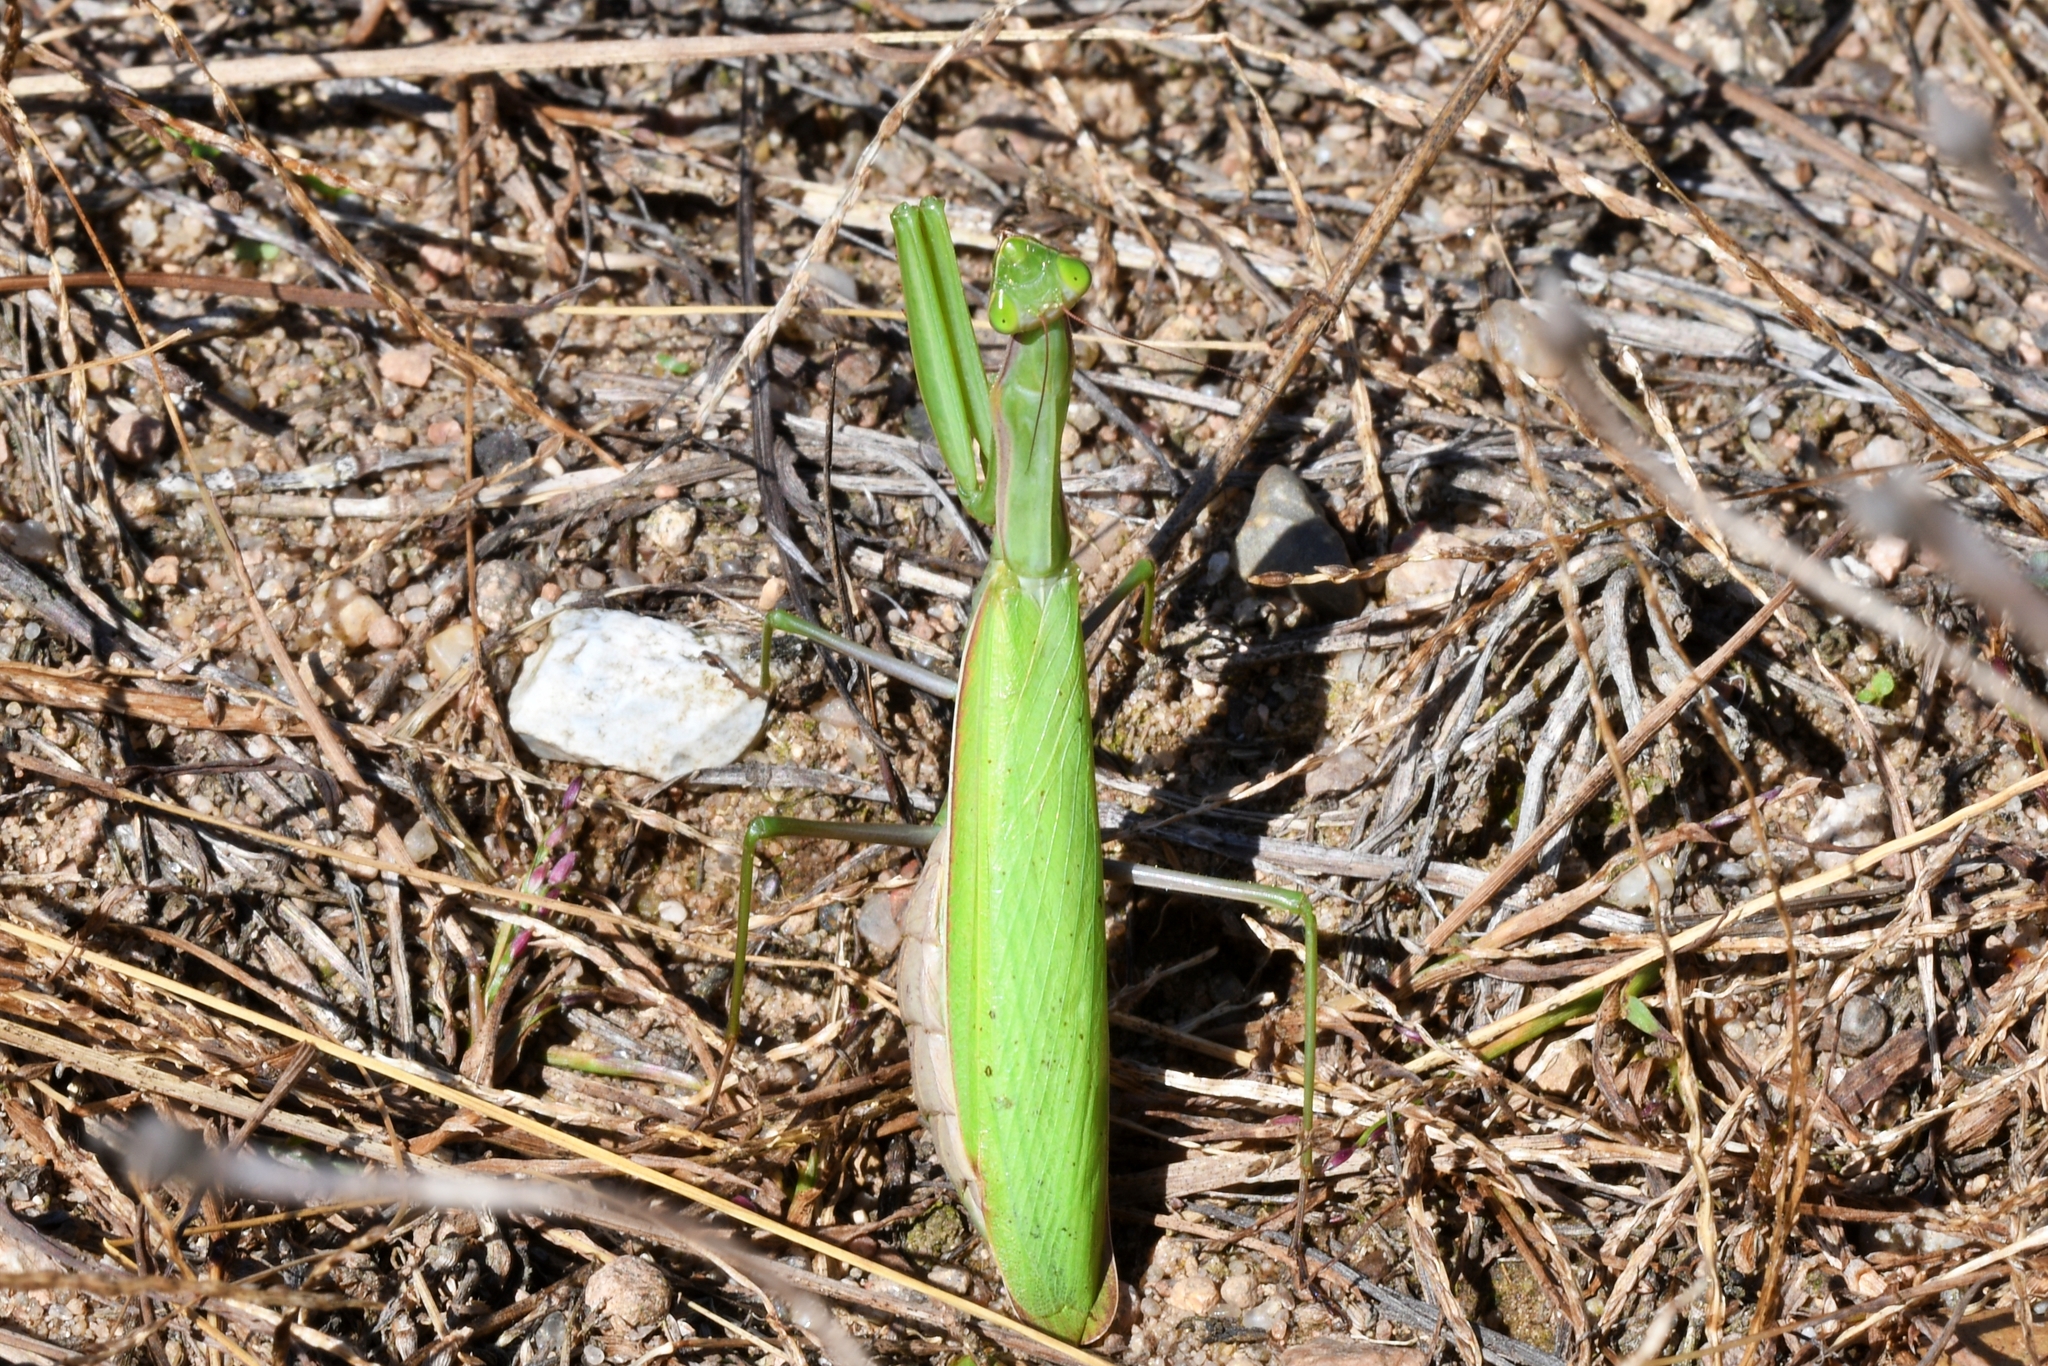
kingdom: Animalia
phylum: Arthropoda
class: Insecta
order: Mantodea
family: Mantidae
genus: Mantis
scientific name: Mantis religiosa
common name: Praying mantis
